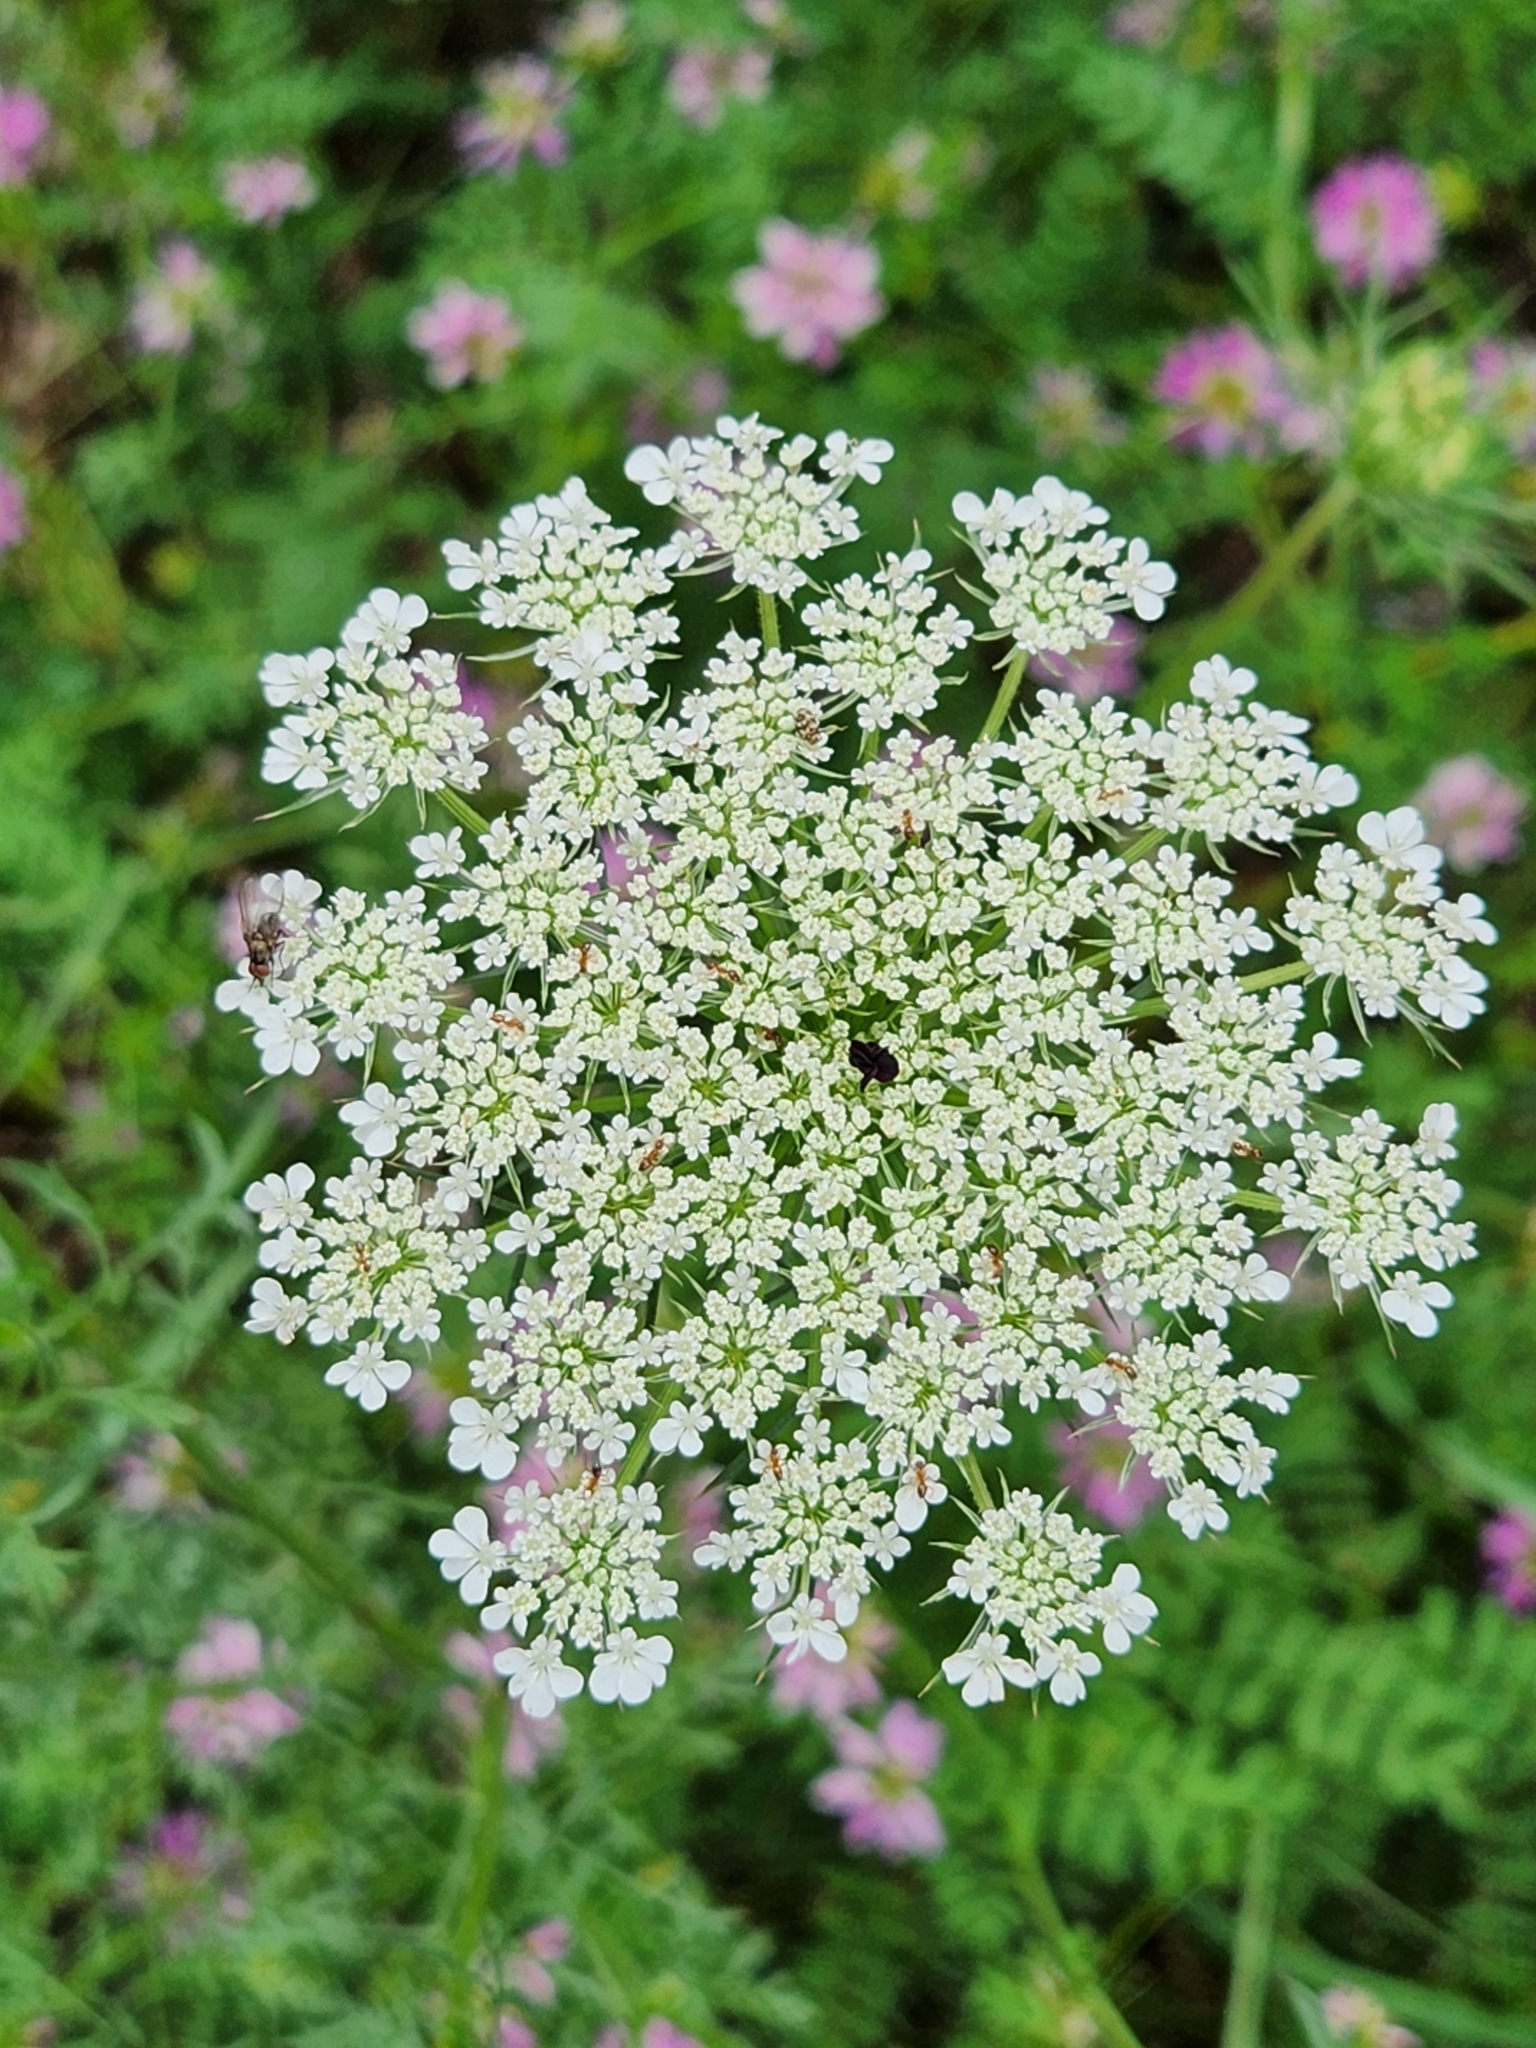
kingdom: Plantae
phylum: Tracheophyta
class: Magnoliopsida
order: Apiales
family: Apiaceae
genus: Daucus
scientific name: Daucus carota
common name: Wild carrot
